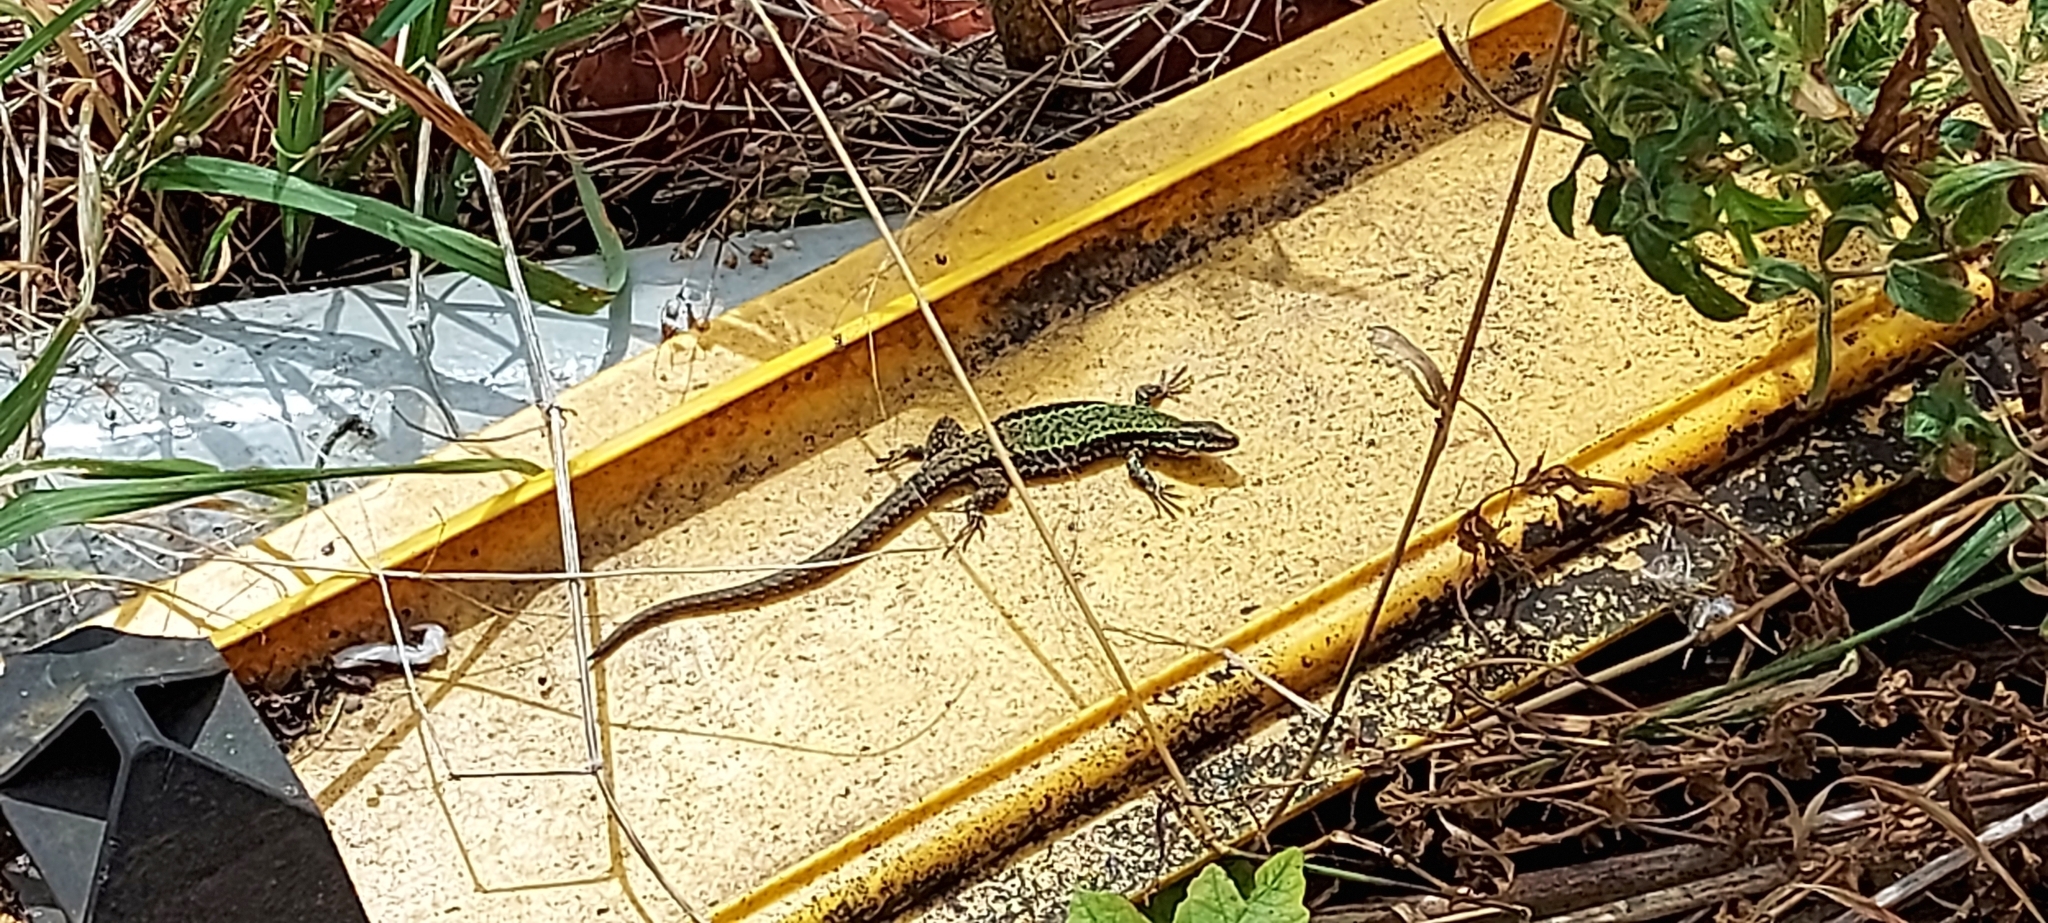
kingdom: Animalia
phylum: Chordata
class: Squamata
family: Lacertidae
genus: Podarcis
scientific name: Podarcis muralis
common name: Common wall lizard
